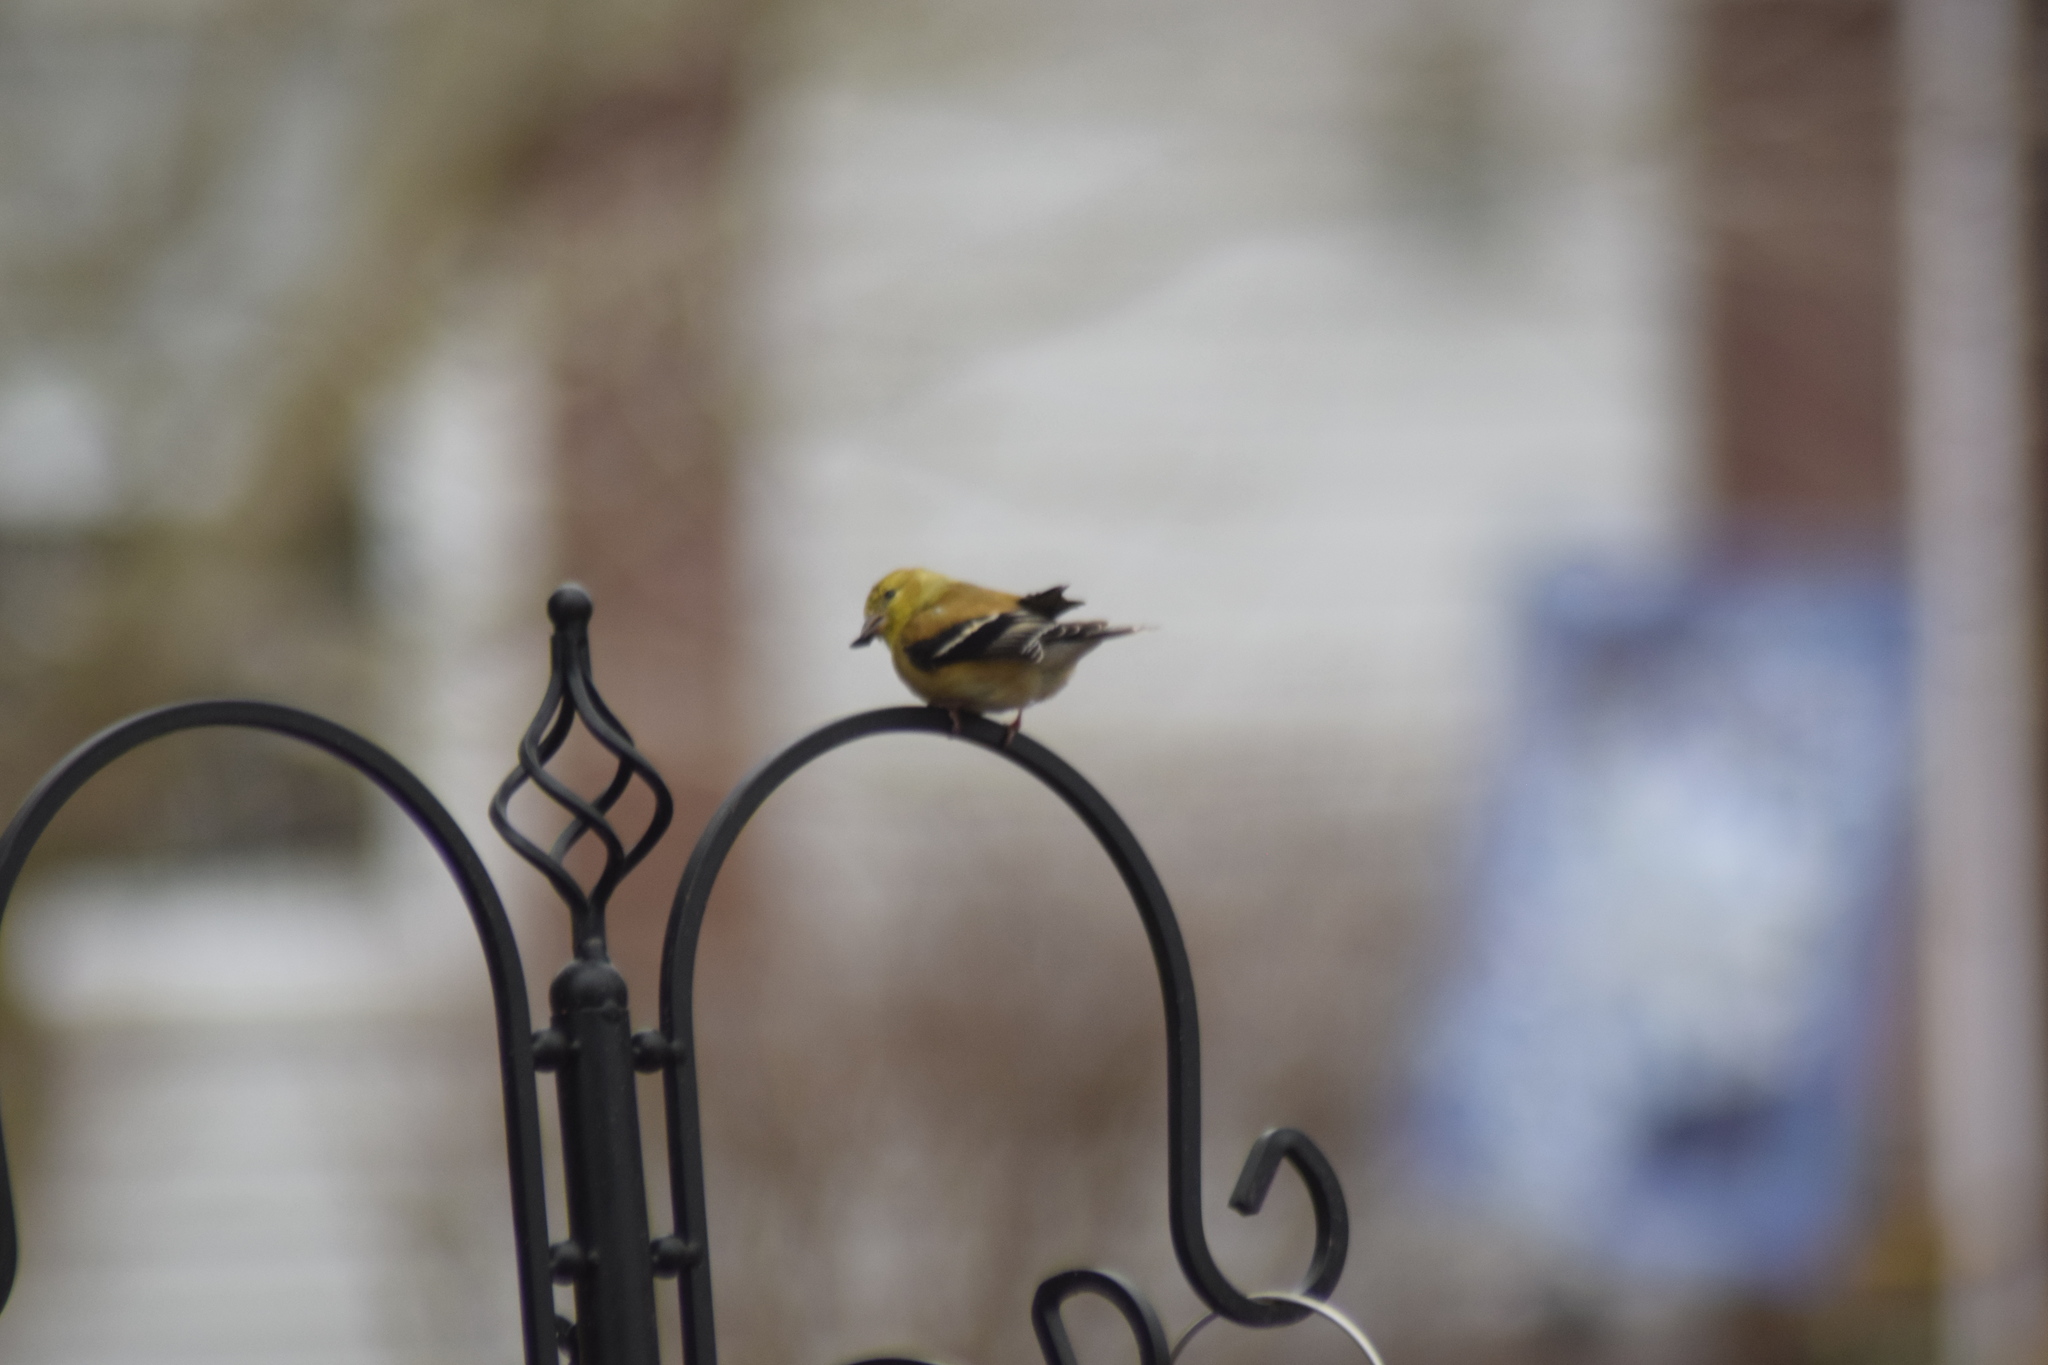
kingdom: Animalia
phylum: Chordata
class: Aves
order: Passeriformes
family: Fringillidae
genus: Spinus
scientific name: Spinus tristis
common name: American goldfinch
